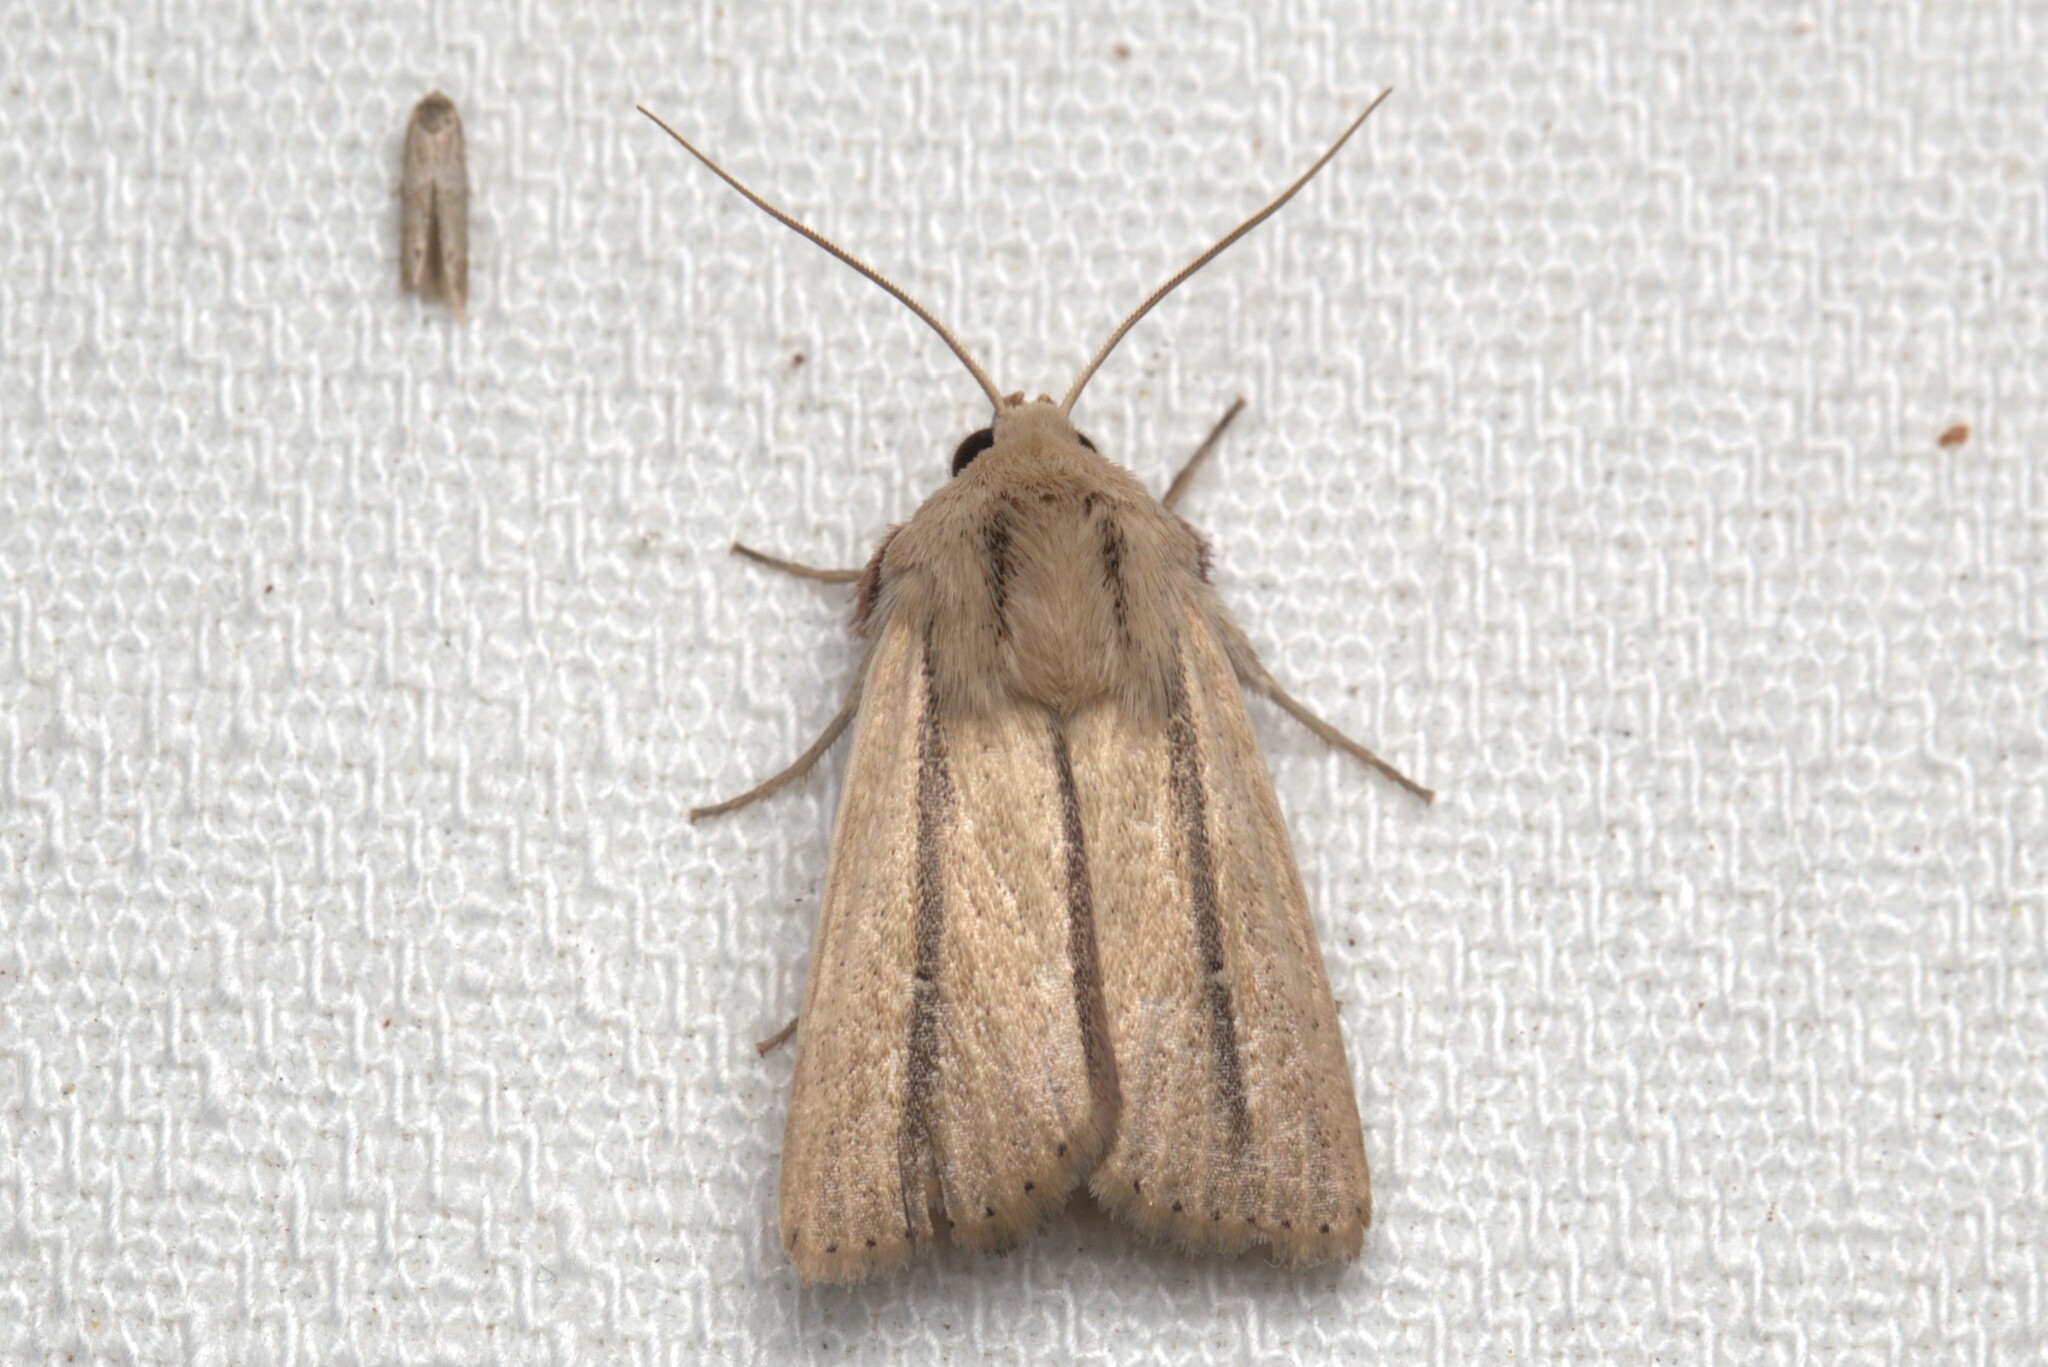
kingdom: Animalia
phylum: Arthropoda
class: Insecta
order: Lepidoptera
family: Noctuidae
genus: Leucania
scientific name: Leucania diatrecta
